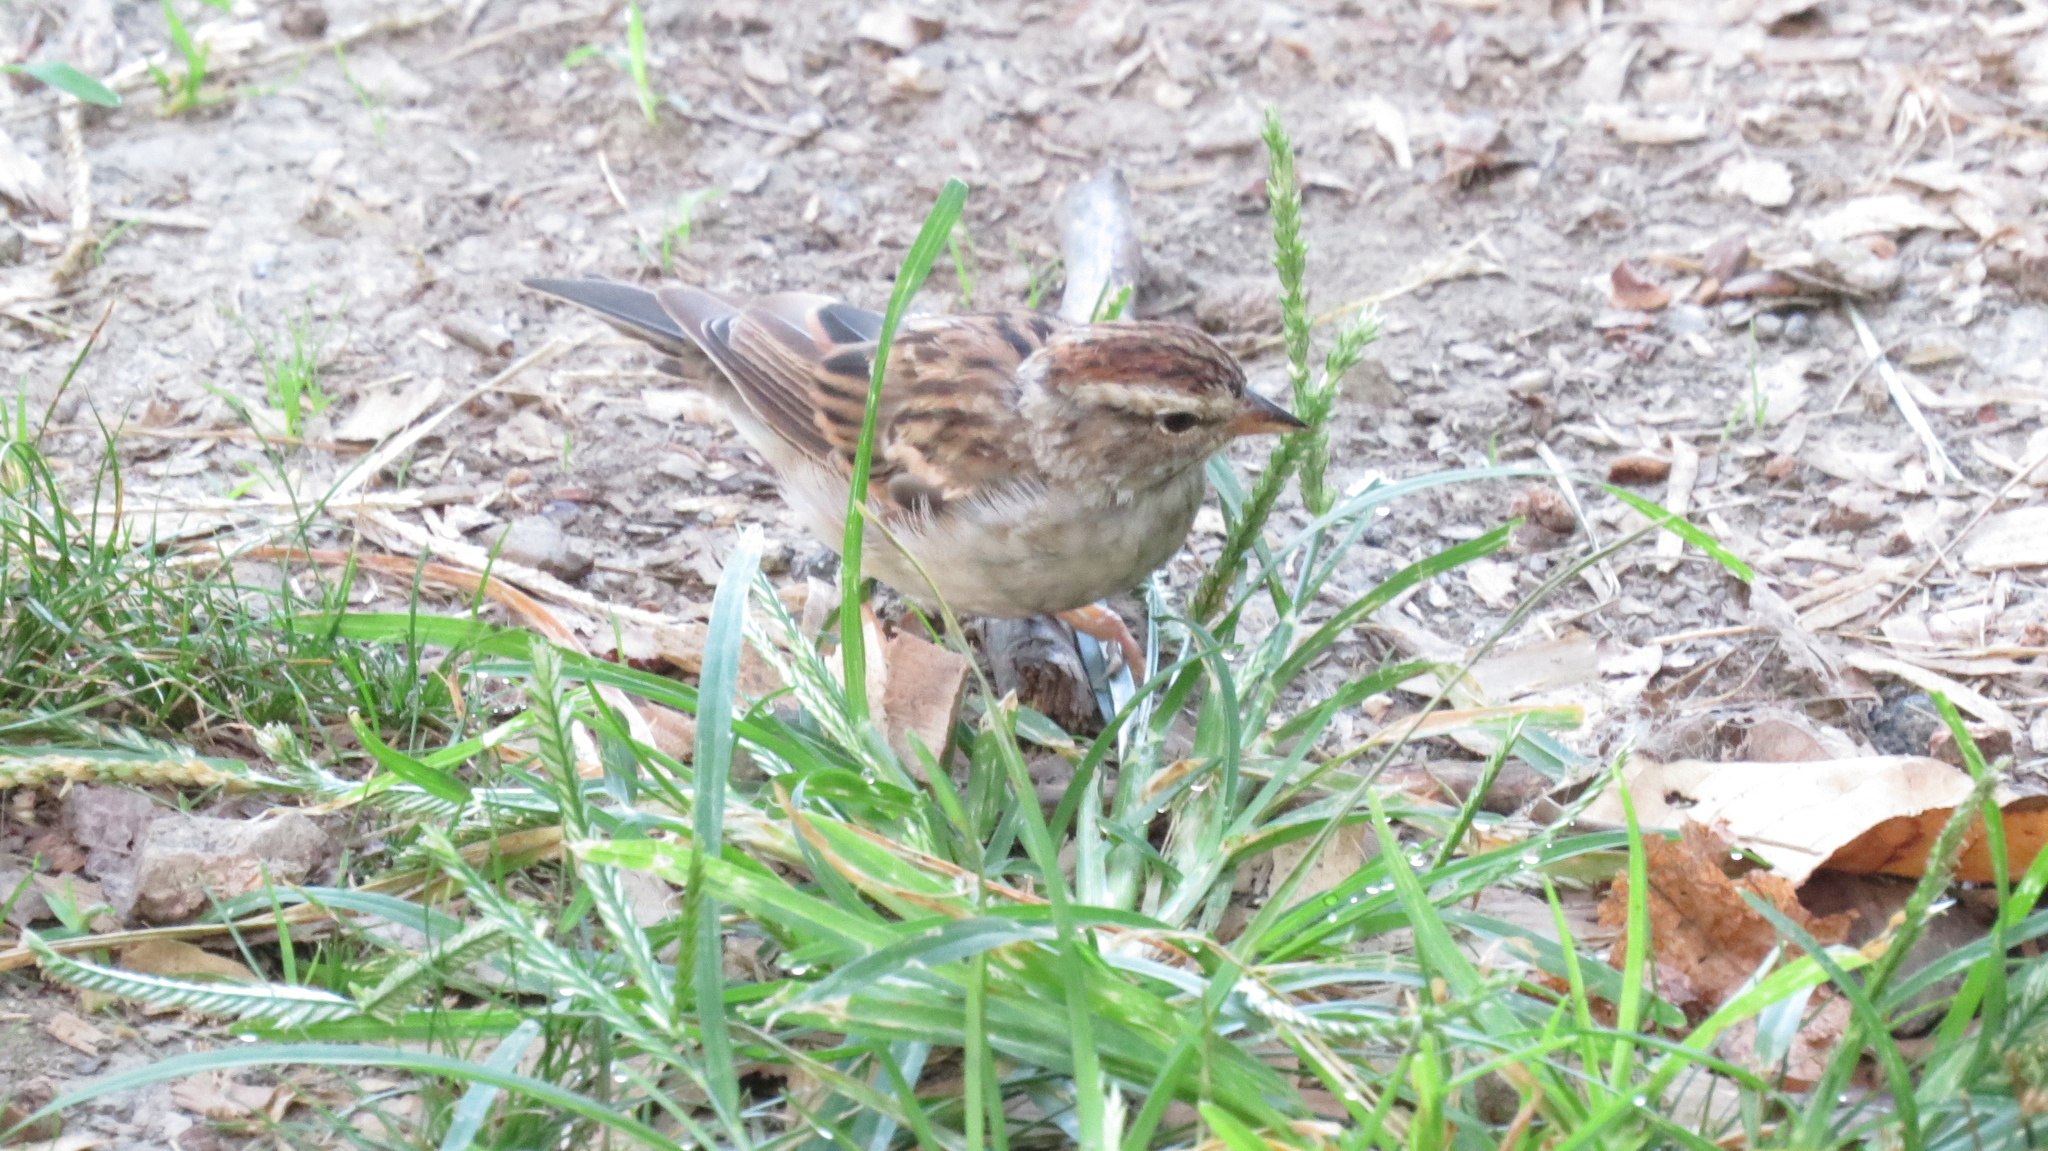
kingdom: Animalia
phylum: Chordata
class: Aves
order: Passeriformes
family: Passerellidae
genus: Spizella
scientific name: Spizella passerina
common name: Chipping sparrow
